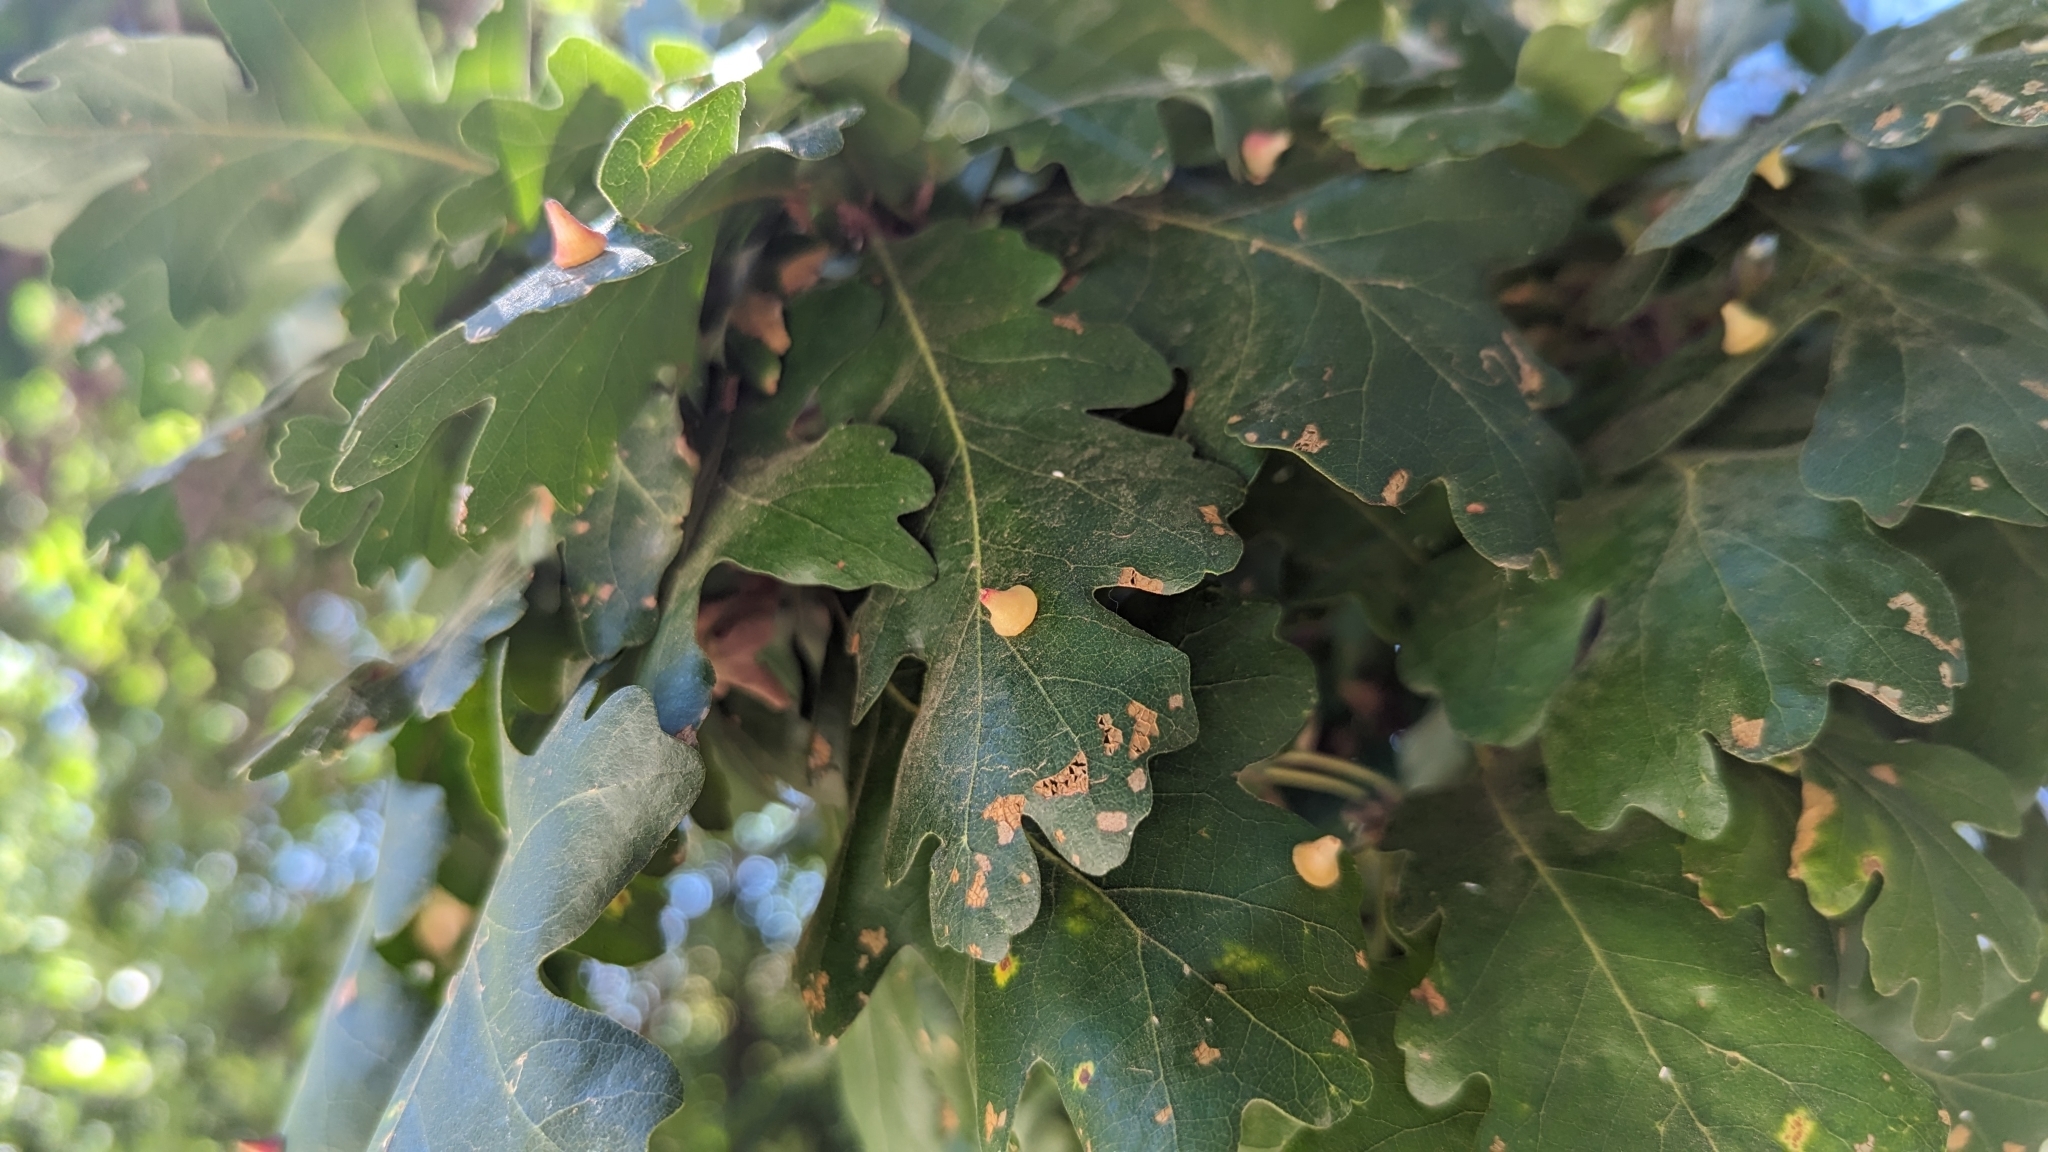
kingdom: Animalia
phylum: Arthropoda
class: Insecta
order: Hymenoptera
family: Cynipidae
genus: Andricus
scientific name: Andricus
